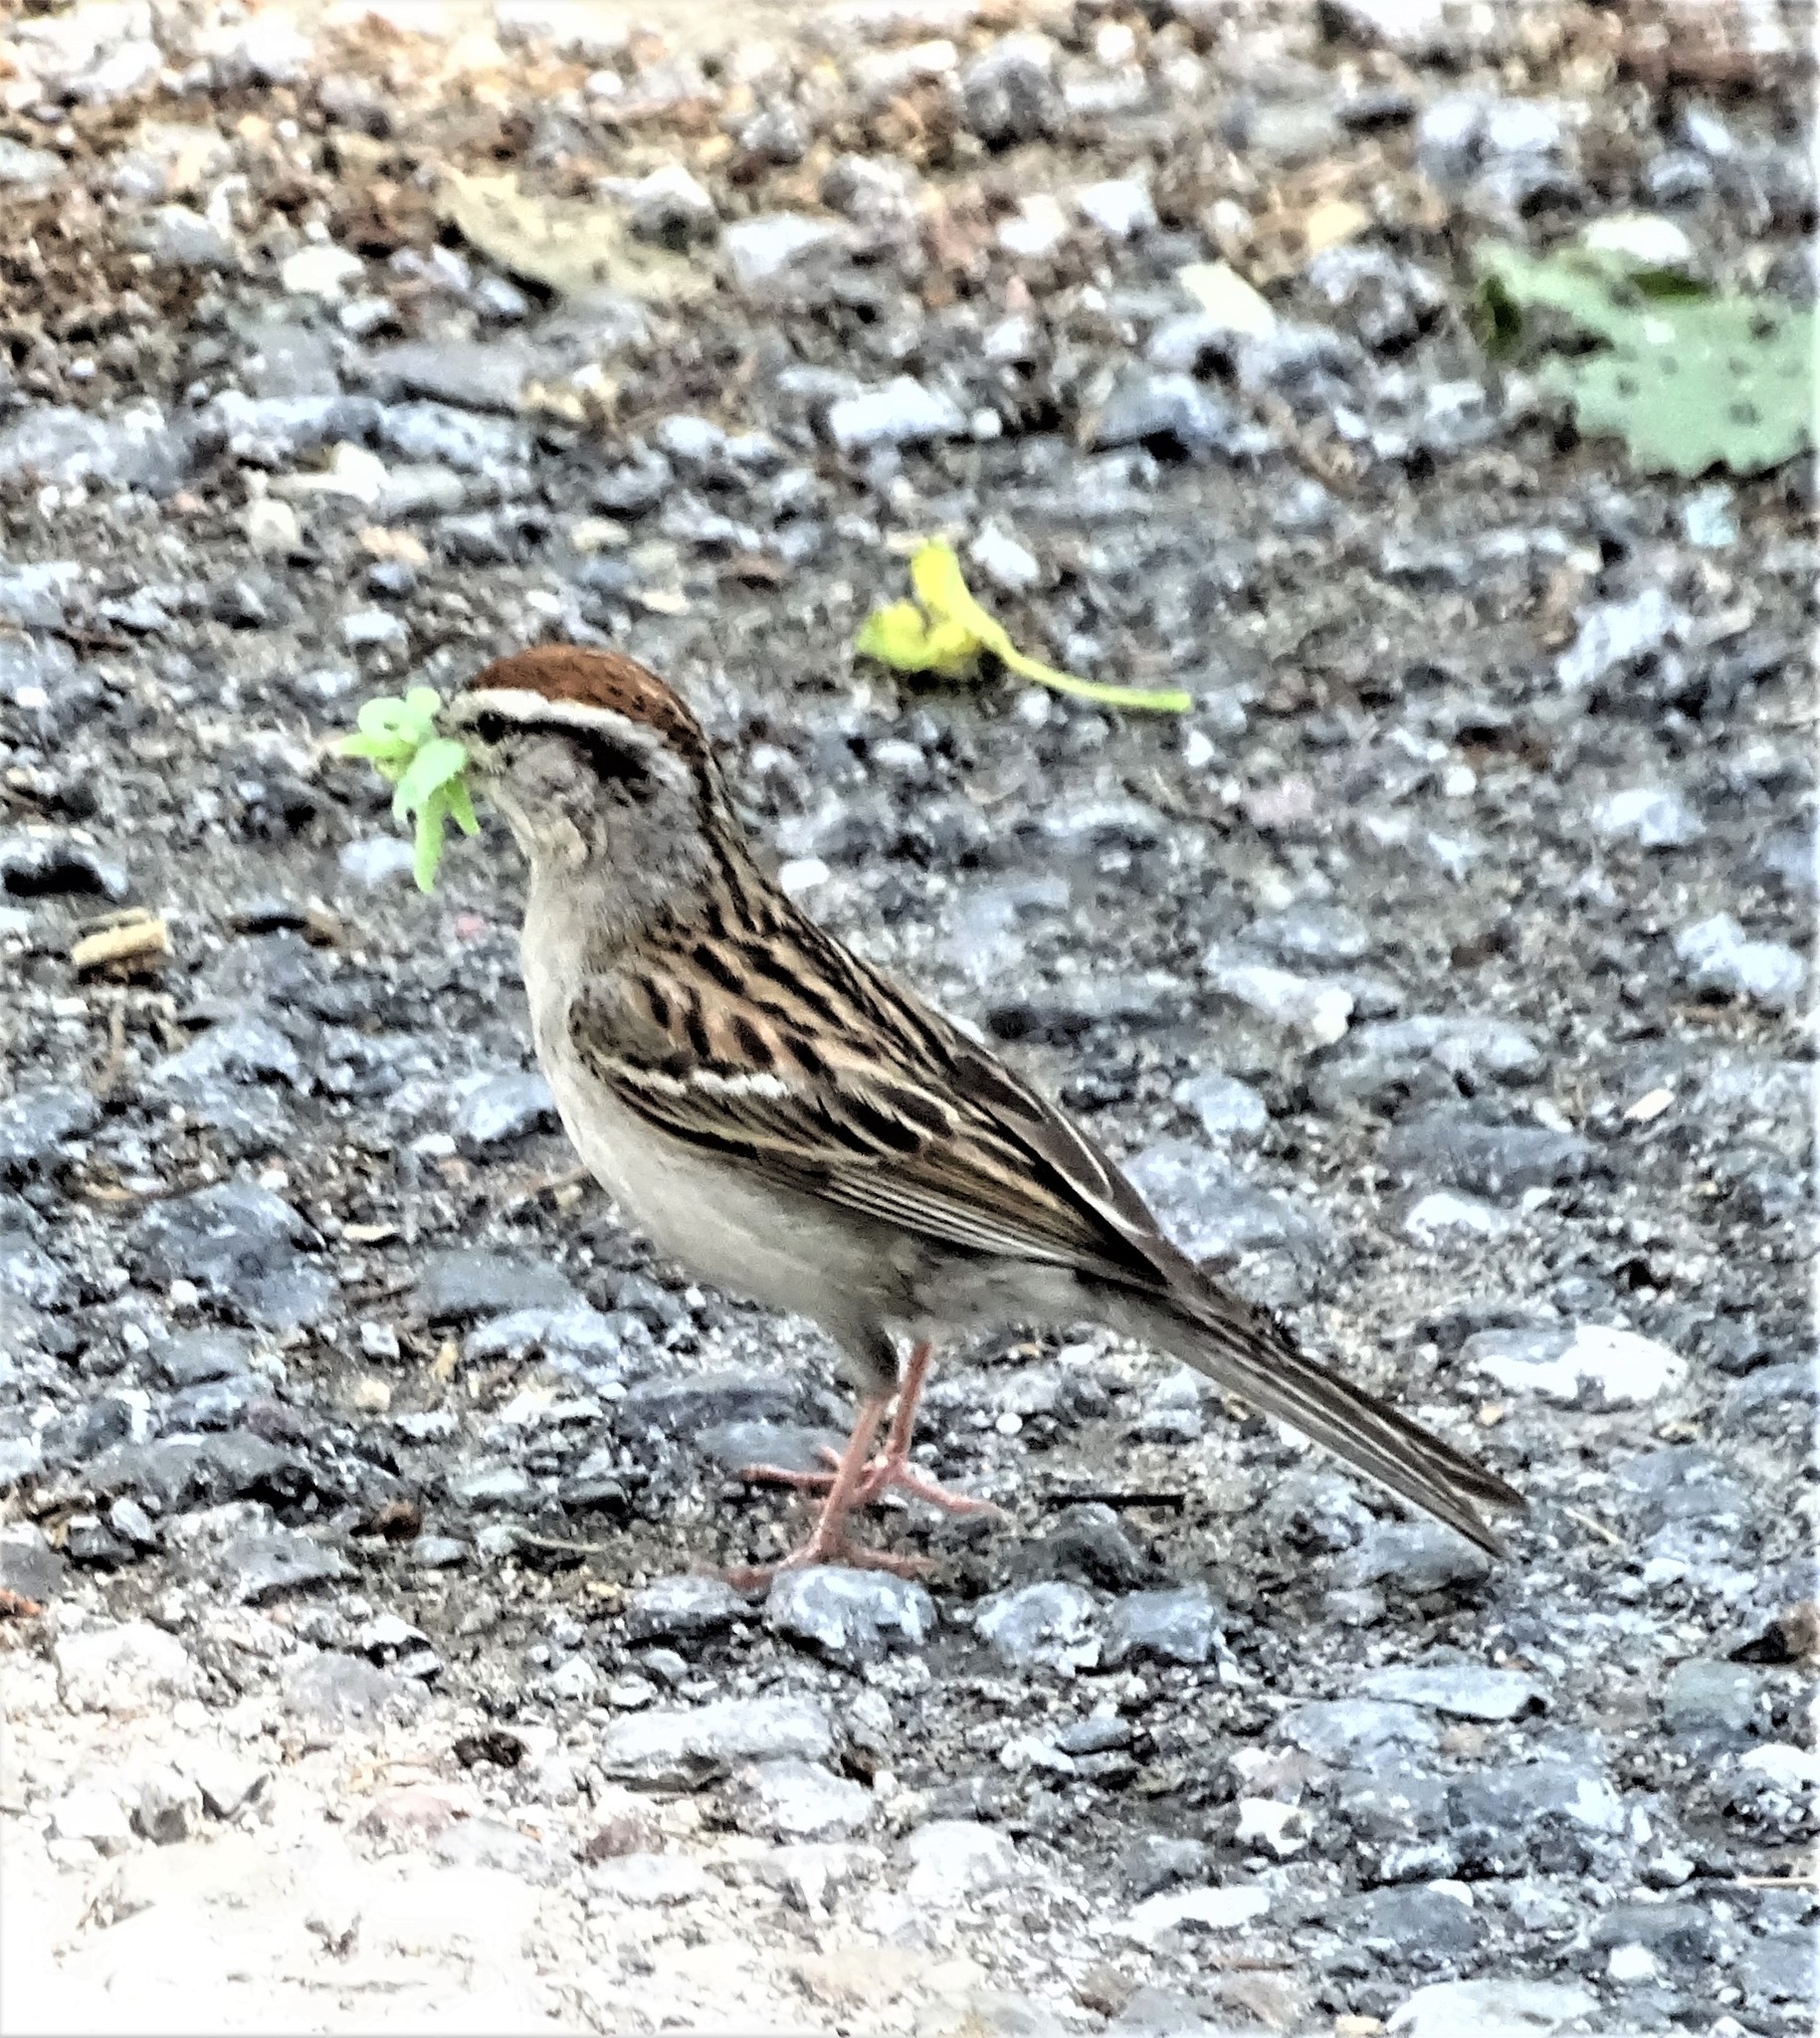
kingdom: Animalia
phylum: Chordata
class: Aves
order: Passeriformes
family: Passerellidae
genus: Spizella
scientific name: Spizella passerina
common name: Chipping sparrow
